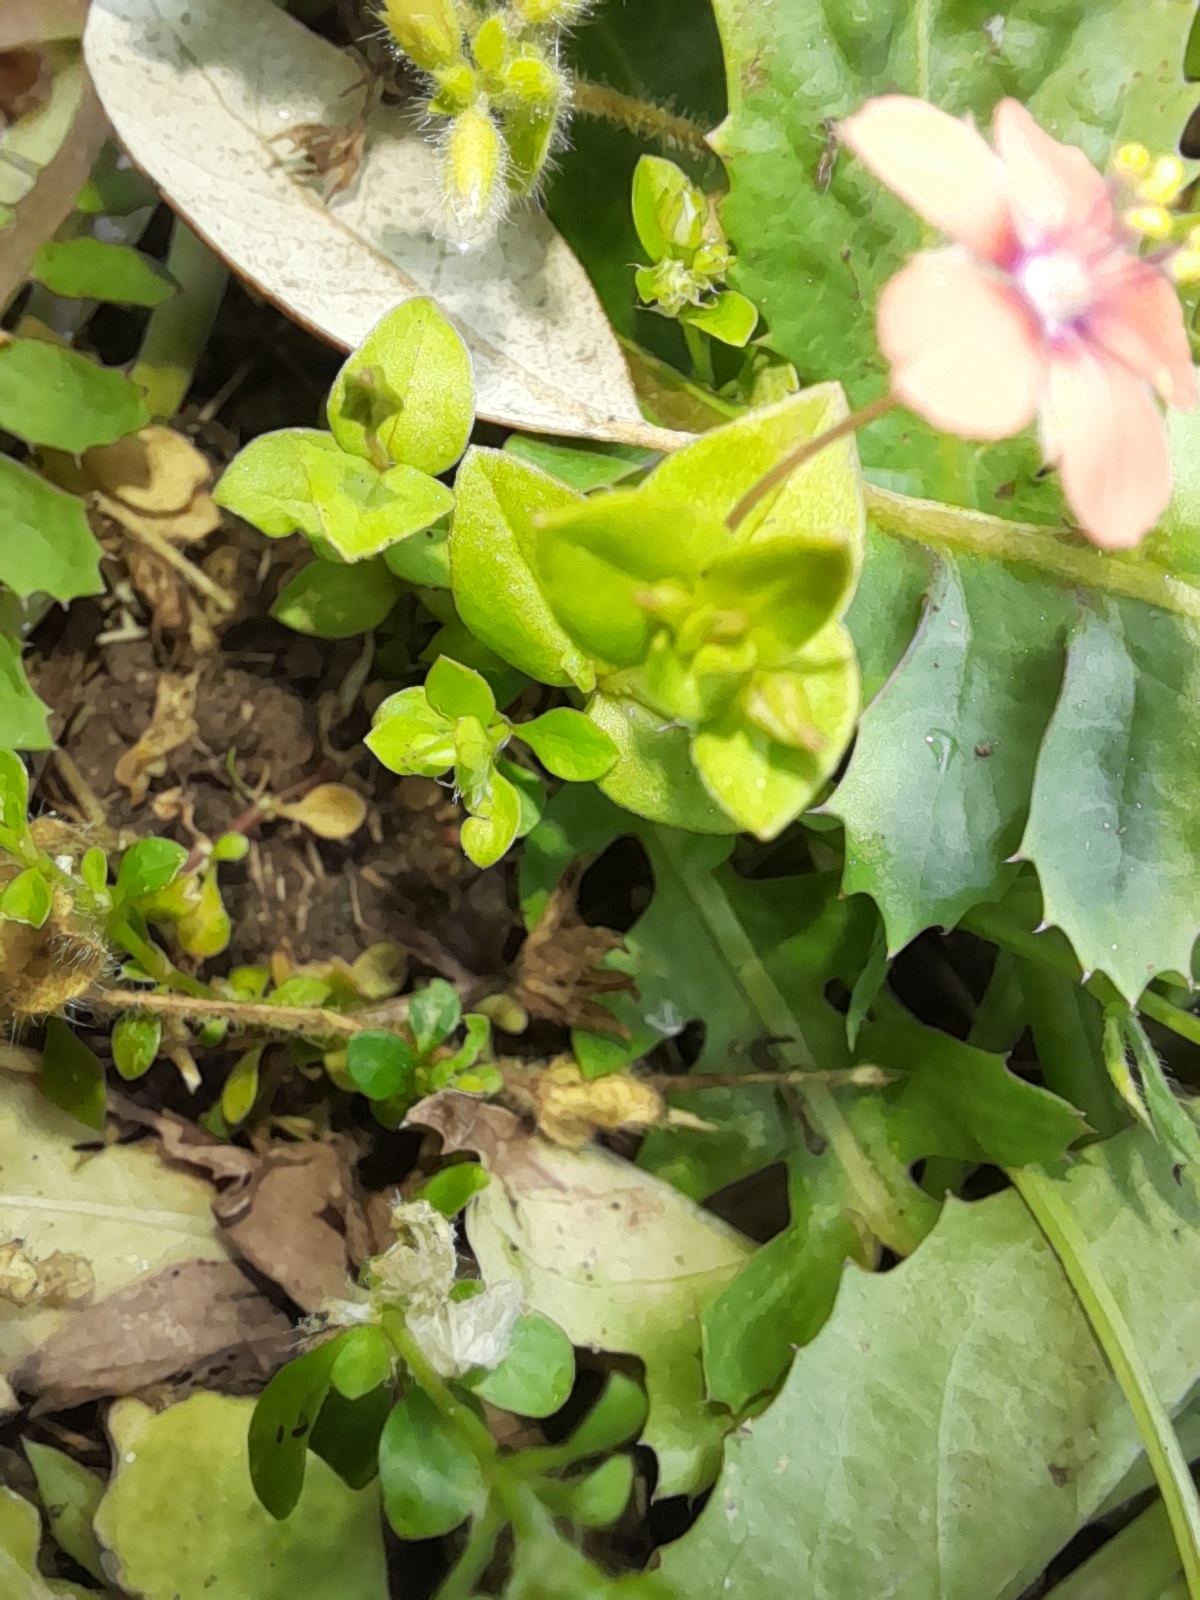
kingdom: Plantae
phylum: Tracheophyta
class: Magnoliopsida
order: Ericales
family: Primulaceae
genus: Lysimachia
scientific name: Lysimachia arvensis
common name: Scarlet pimpernel
